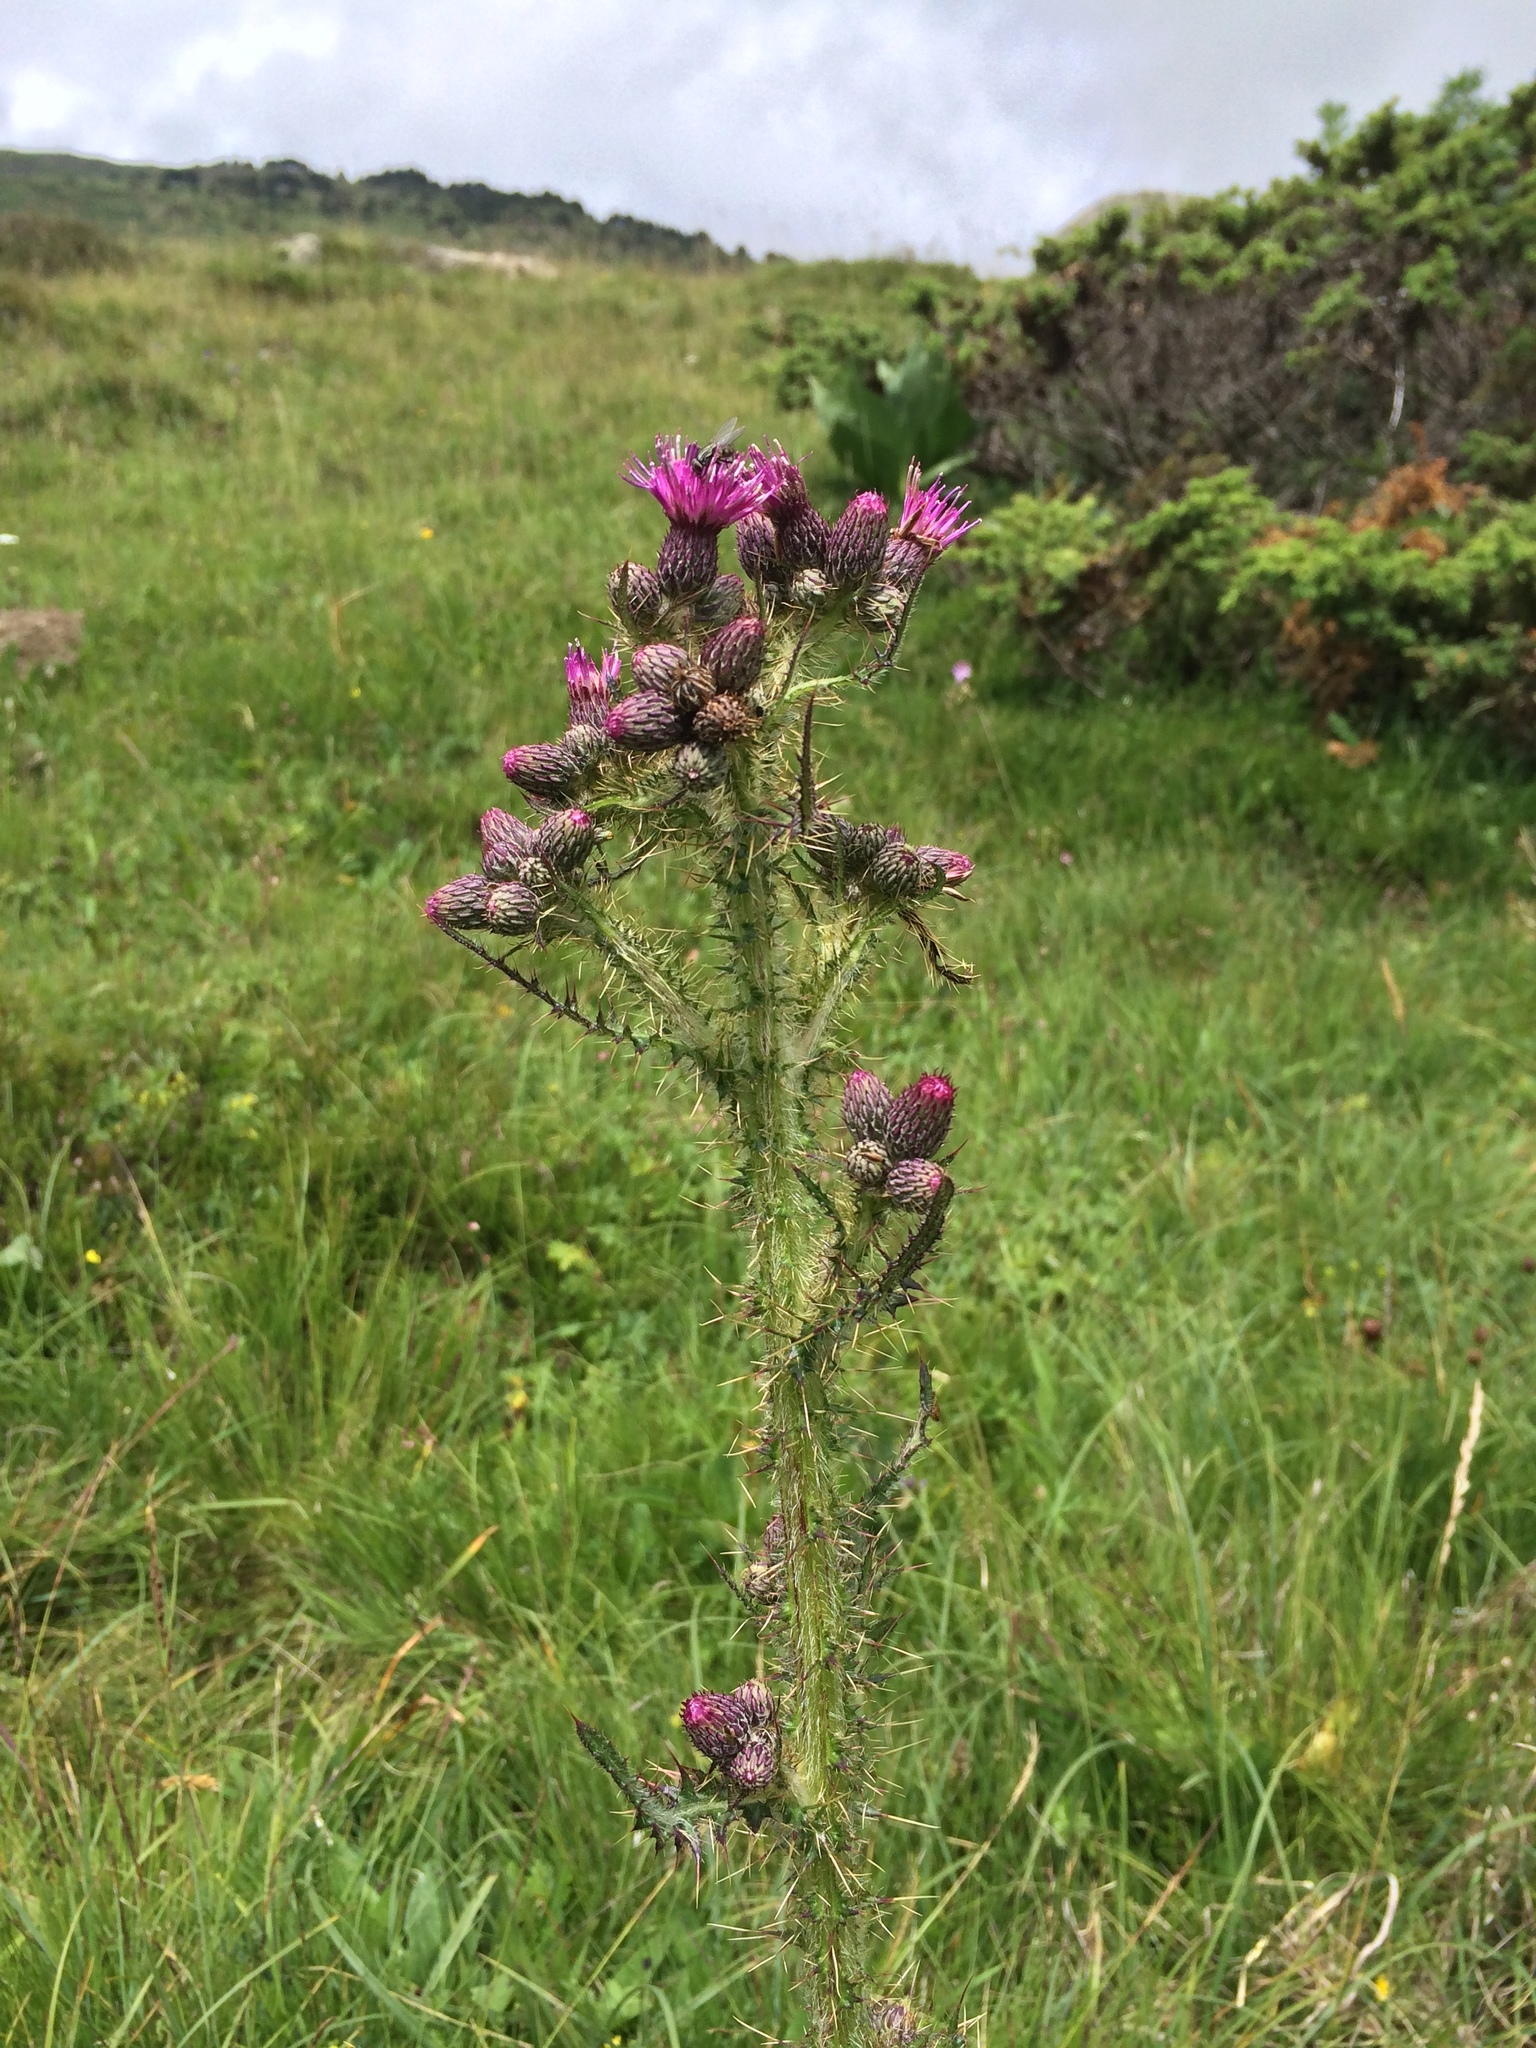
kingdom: Plantae
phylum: Tracheophyta
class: Magnoliopsida
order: Asterales
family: Asteraceae
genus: Cirsium
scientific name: Cirsium palustre
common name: Marsh thistle
